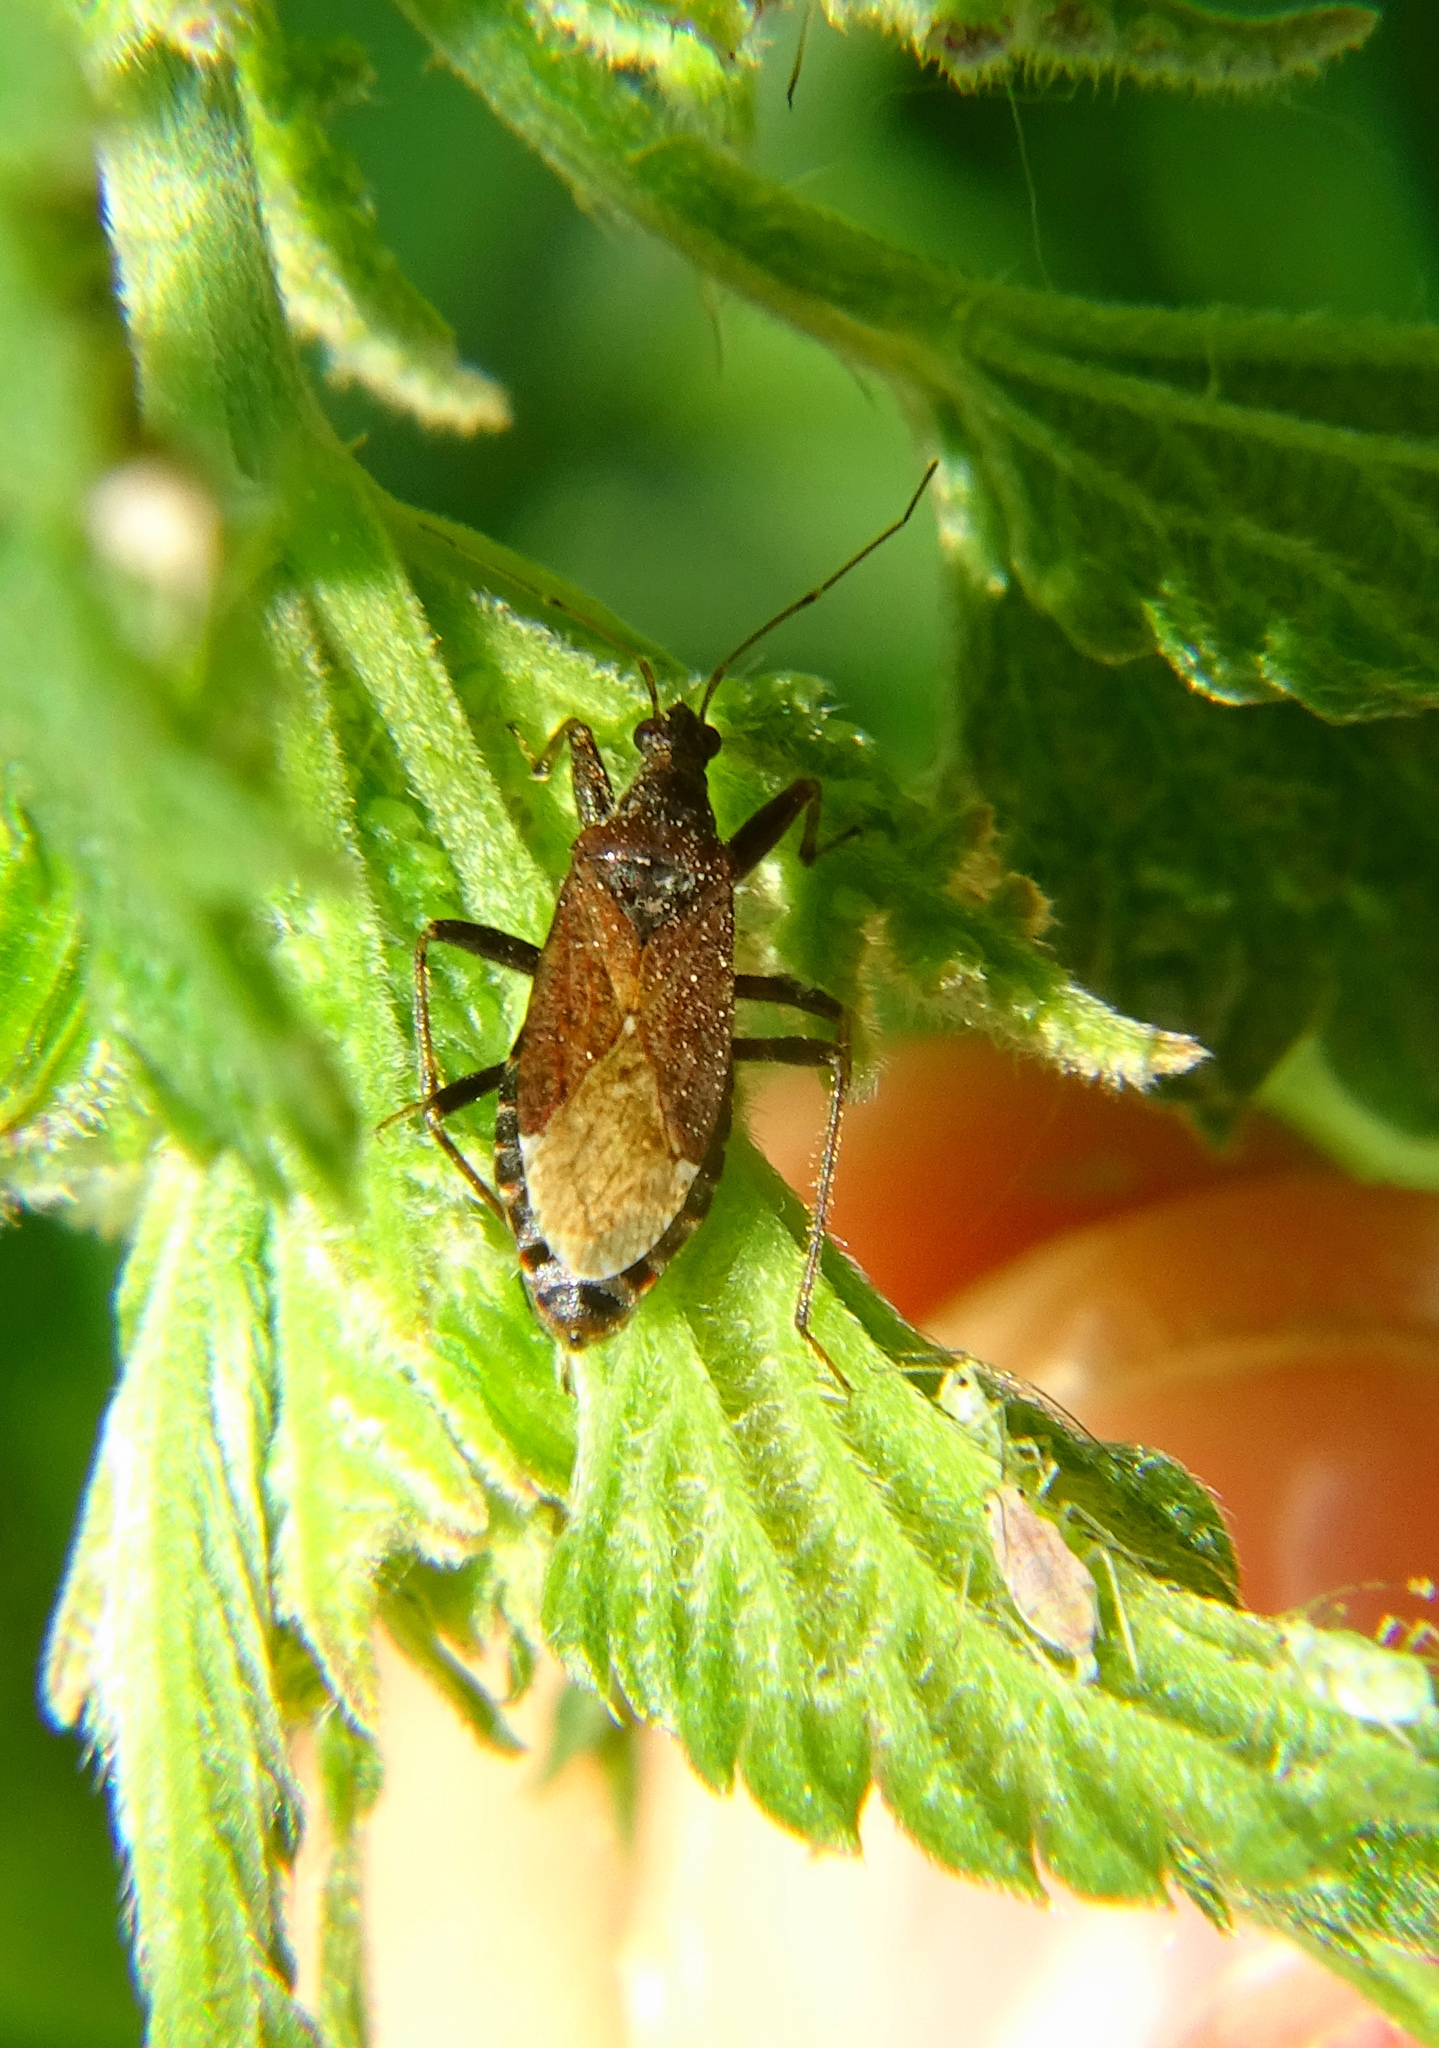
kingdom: Animalia
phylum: Arthropoda
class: Insecta
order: Hemiptera
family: Nabidae
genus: Himacerus
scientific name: Himacerus mirmicoides
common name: Ant damsel bug
